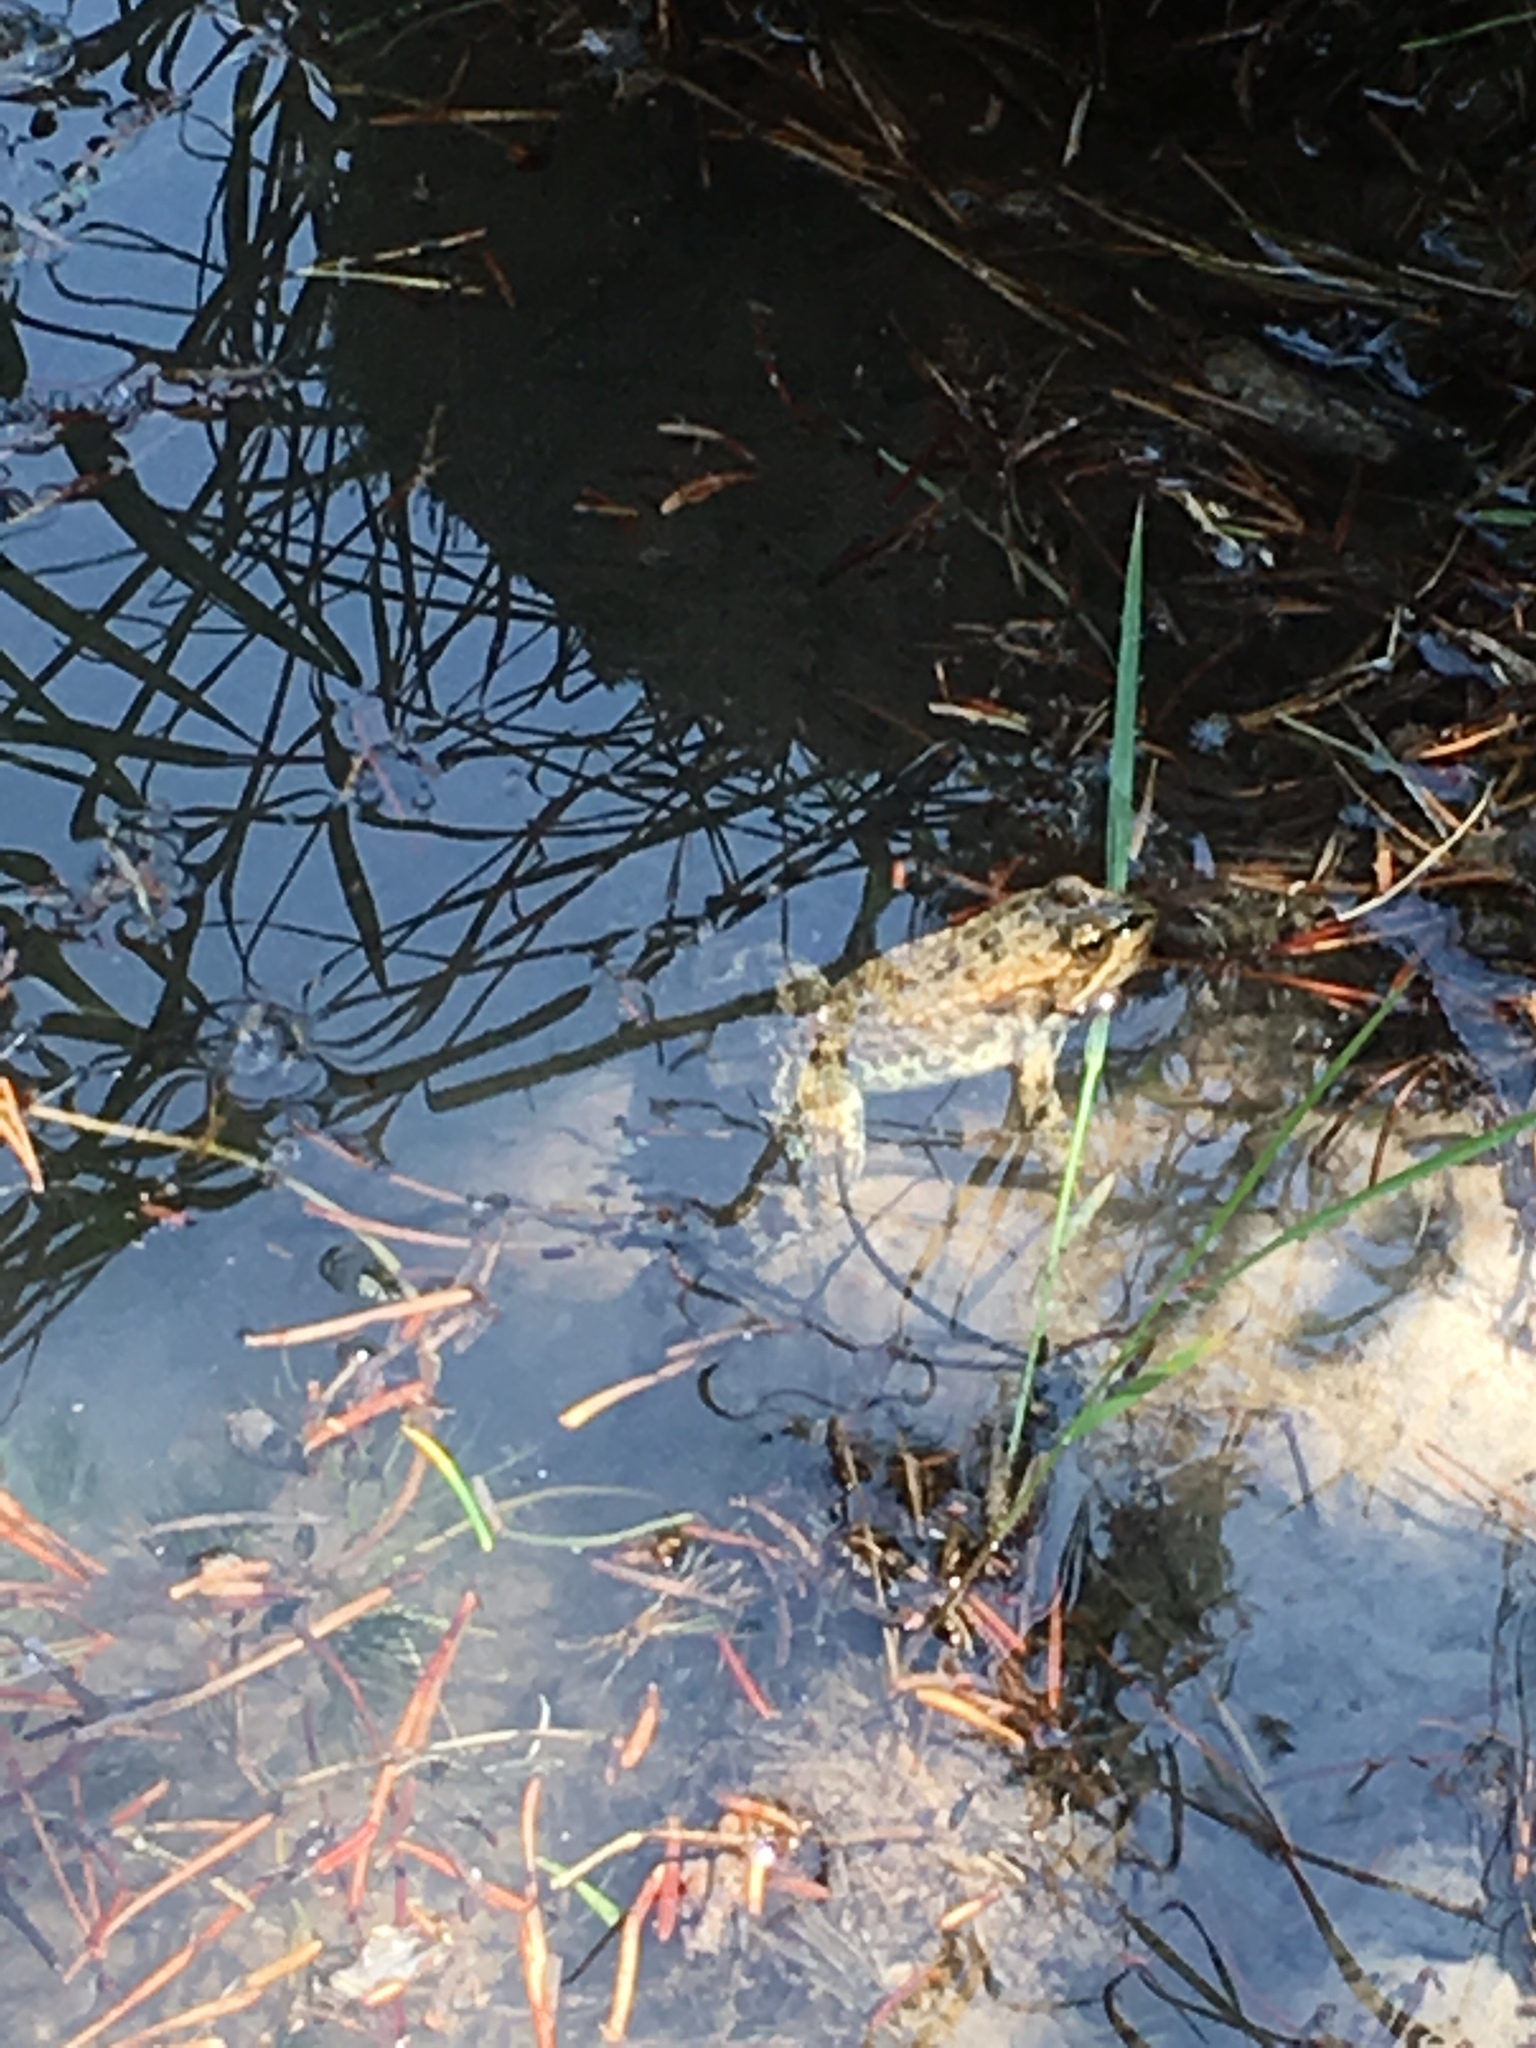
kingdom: Animalia
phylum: Chordata
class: Amphibia
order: Anura
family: Ranidae
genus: Rana
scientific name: Rana luteiventris
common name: Columbia spotted frog
